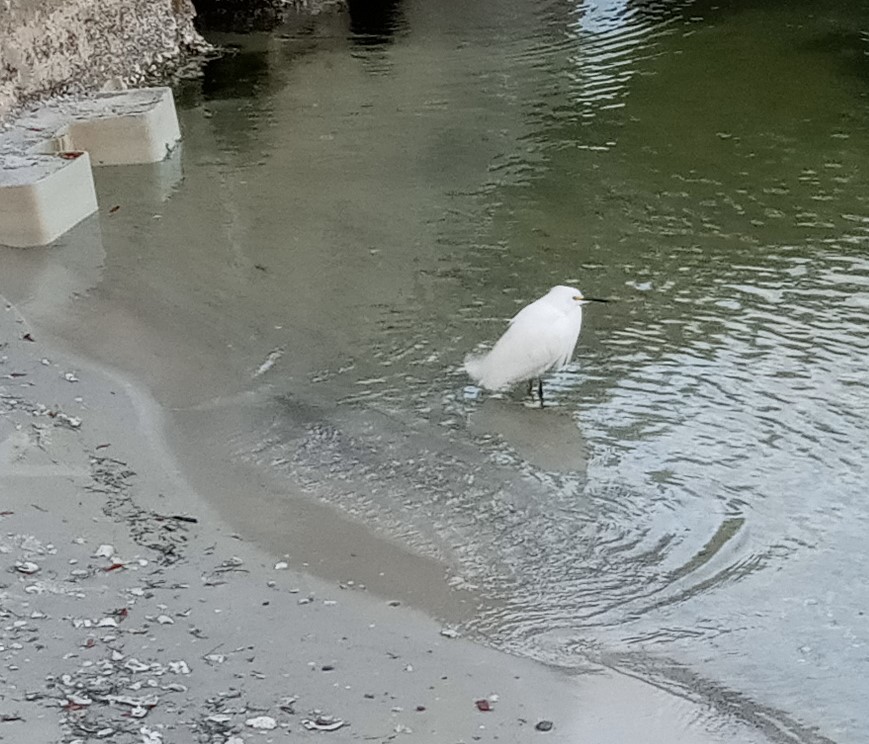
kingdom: Animalia
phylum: Chordata
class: Aves
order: Pelecaniformes
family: Ardeidae
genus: Egretta
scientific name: Egretta thula
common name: Snowy egret
